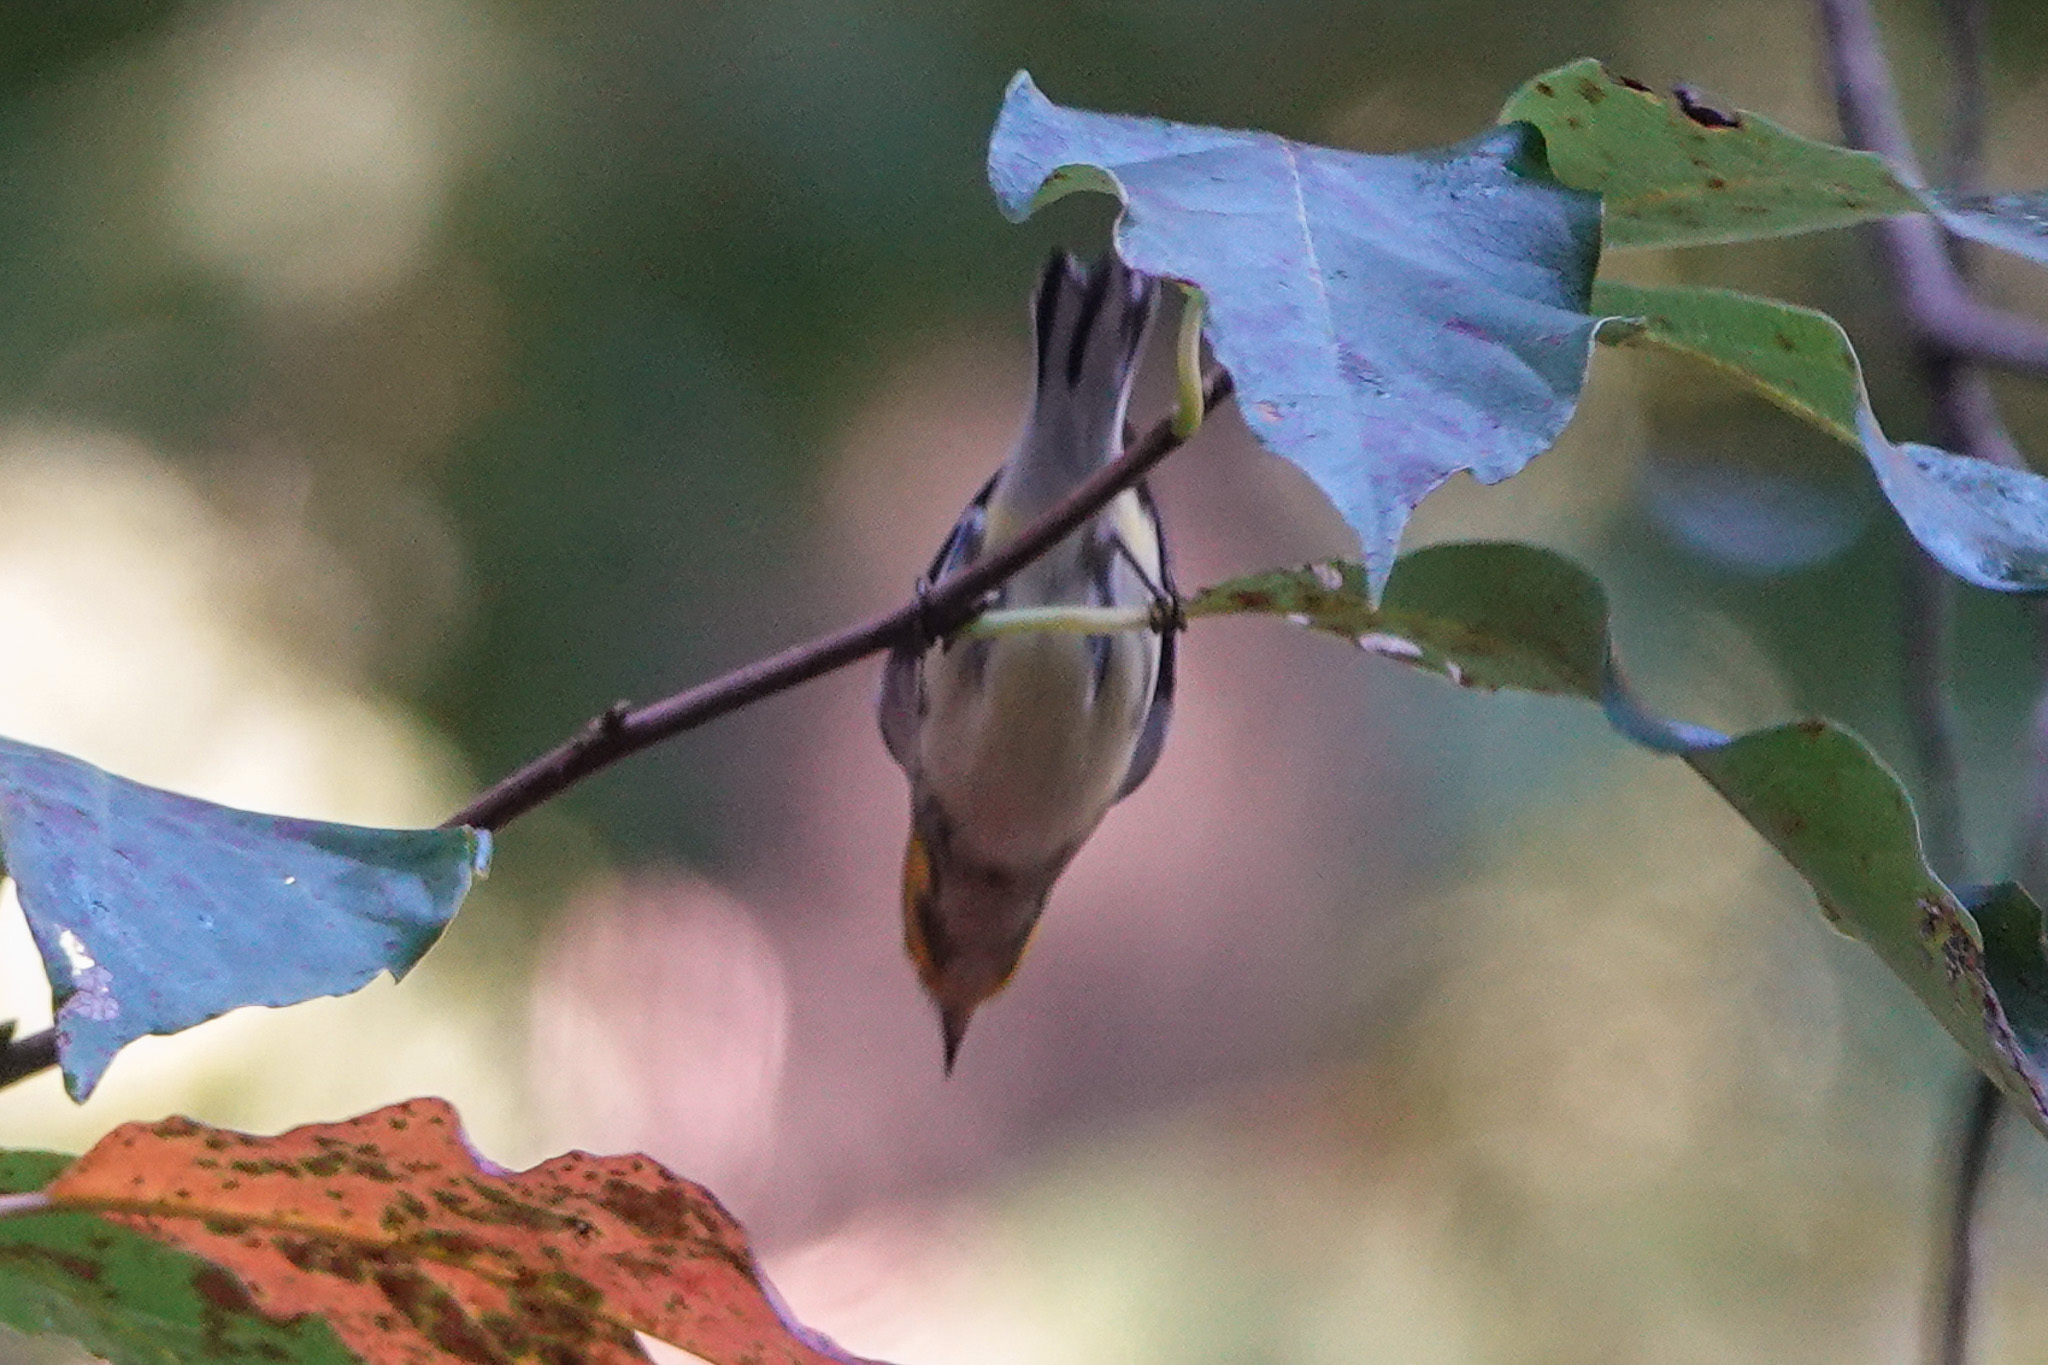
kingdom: Animalia
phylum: Chordata
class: Aves
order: Passeriformes
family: Parulidae
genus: Setophaga
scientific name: Setophaga virens
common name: Black-throated green warbler
